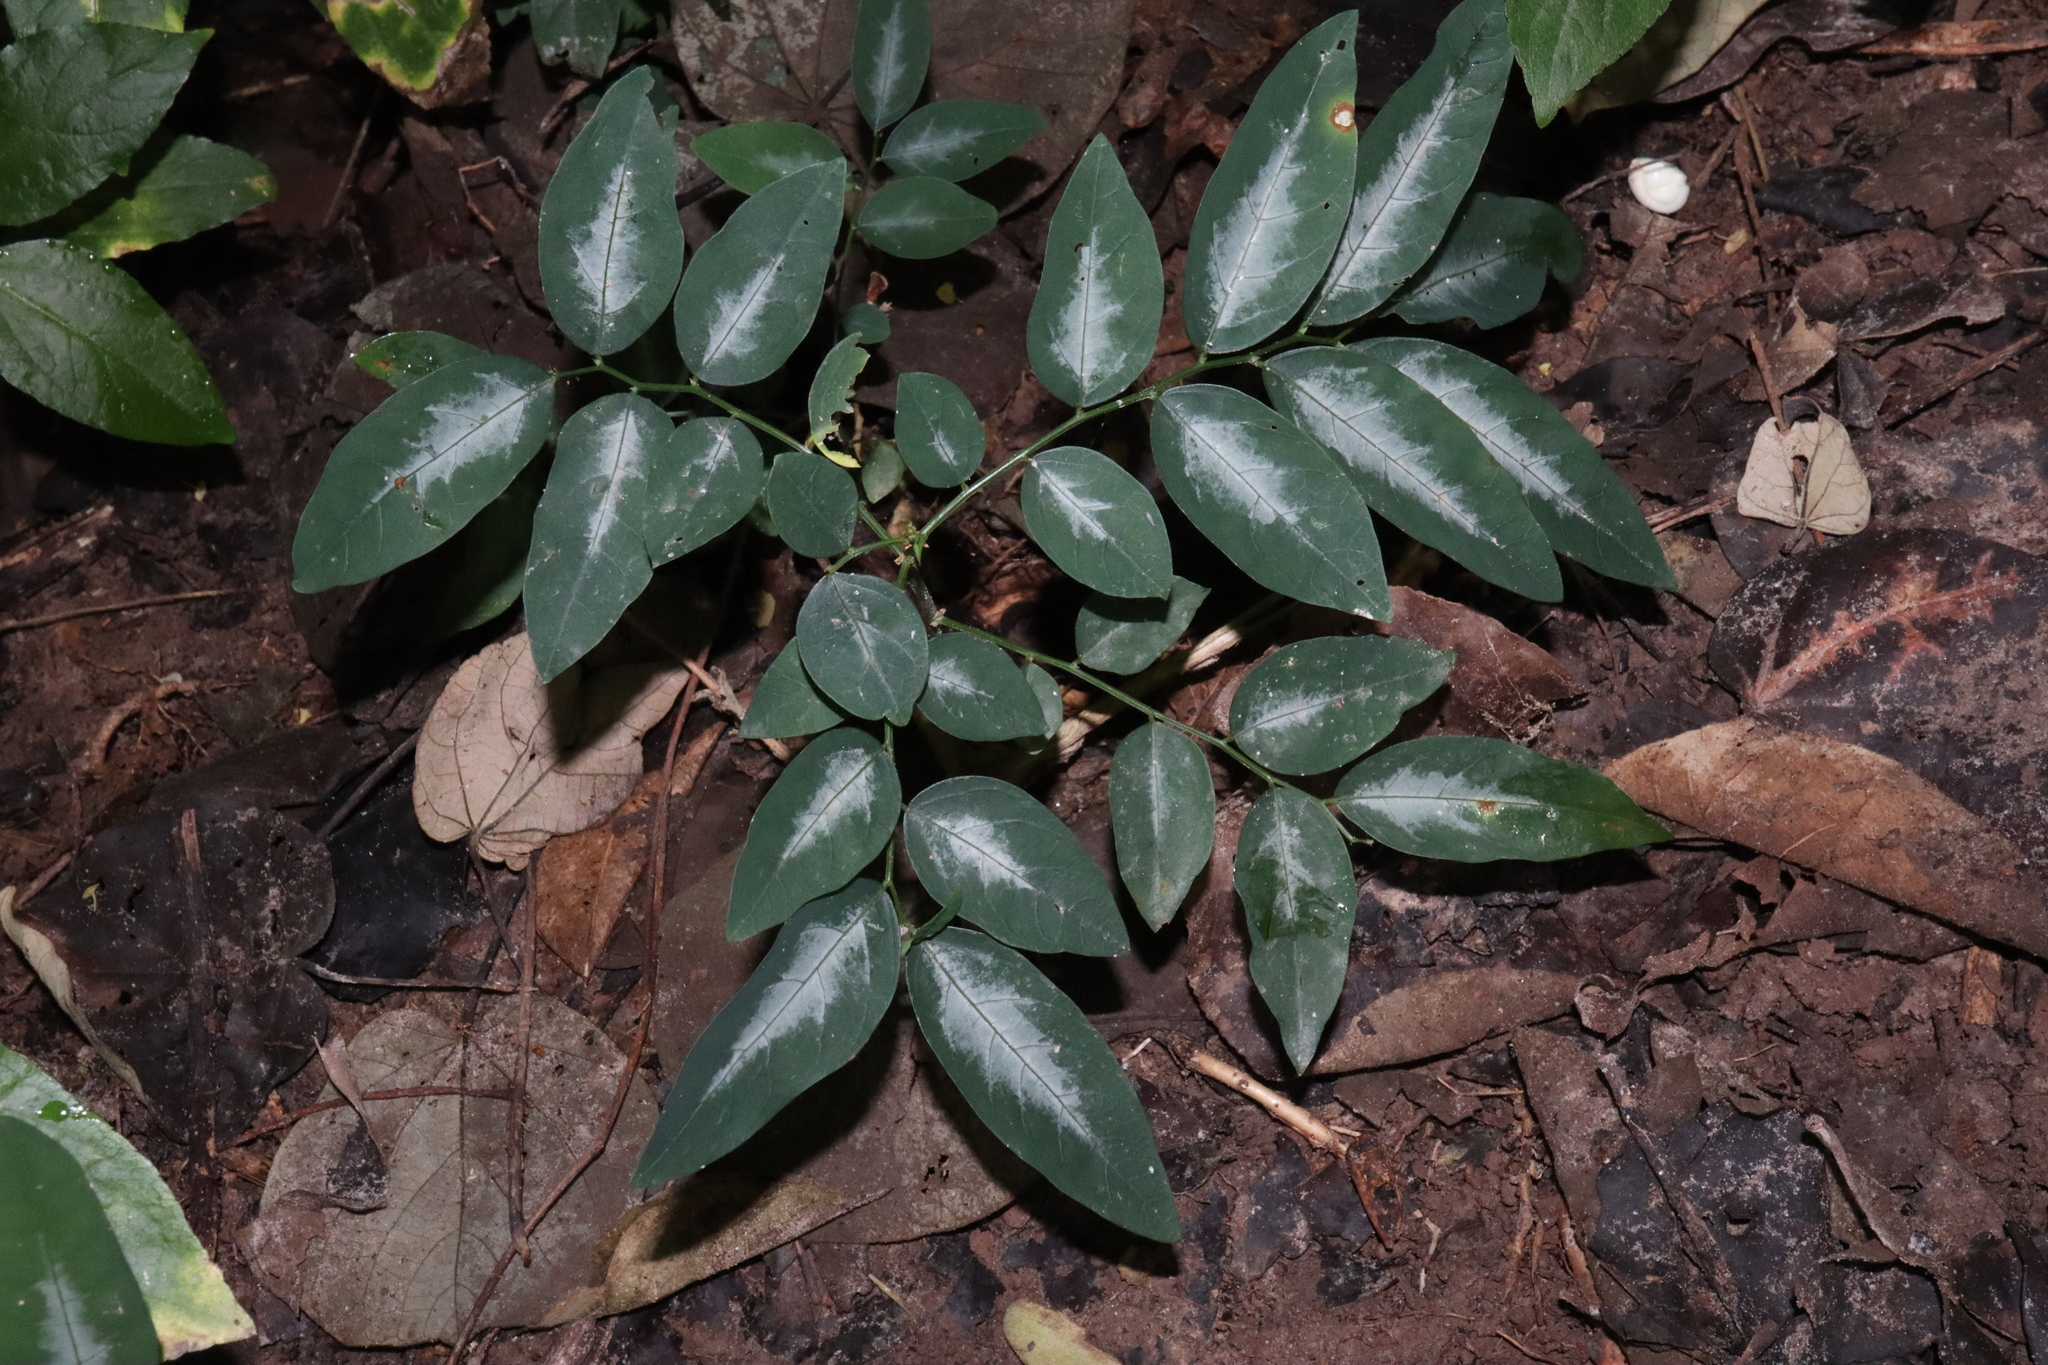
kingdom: Plantae
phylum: Tracheophyta
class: Magnoliopsida
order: Malpighiales
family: Phyllanthaceae
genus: Breynia
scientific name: Breynia androgyna
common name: Star gooseberry
